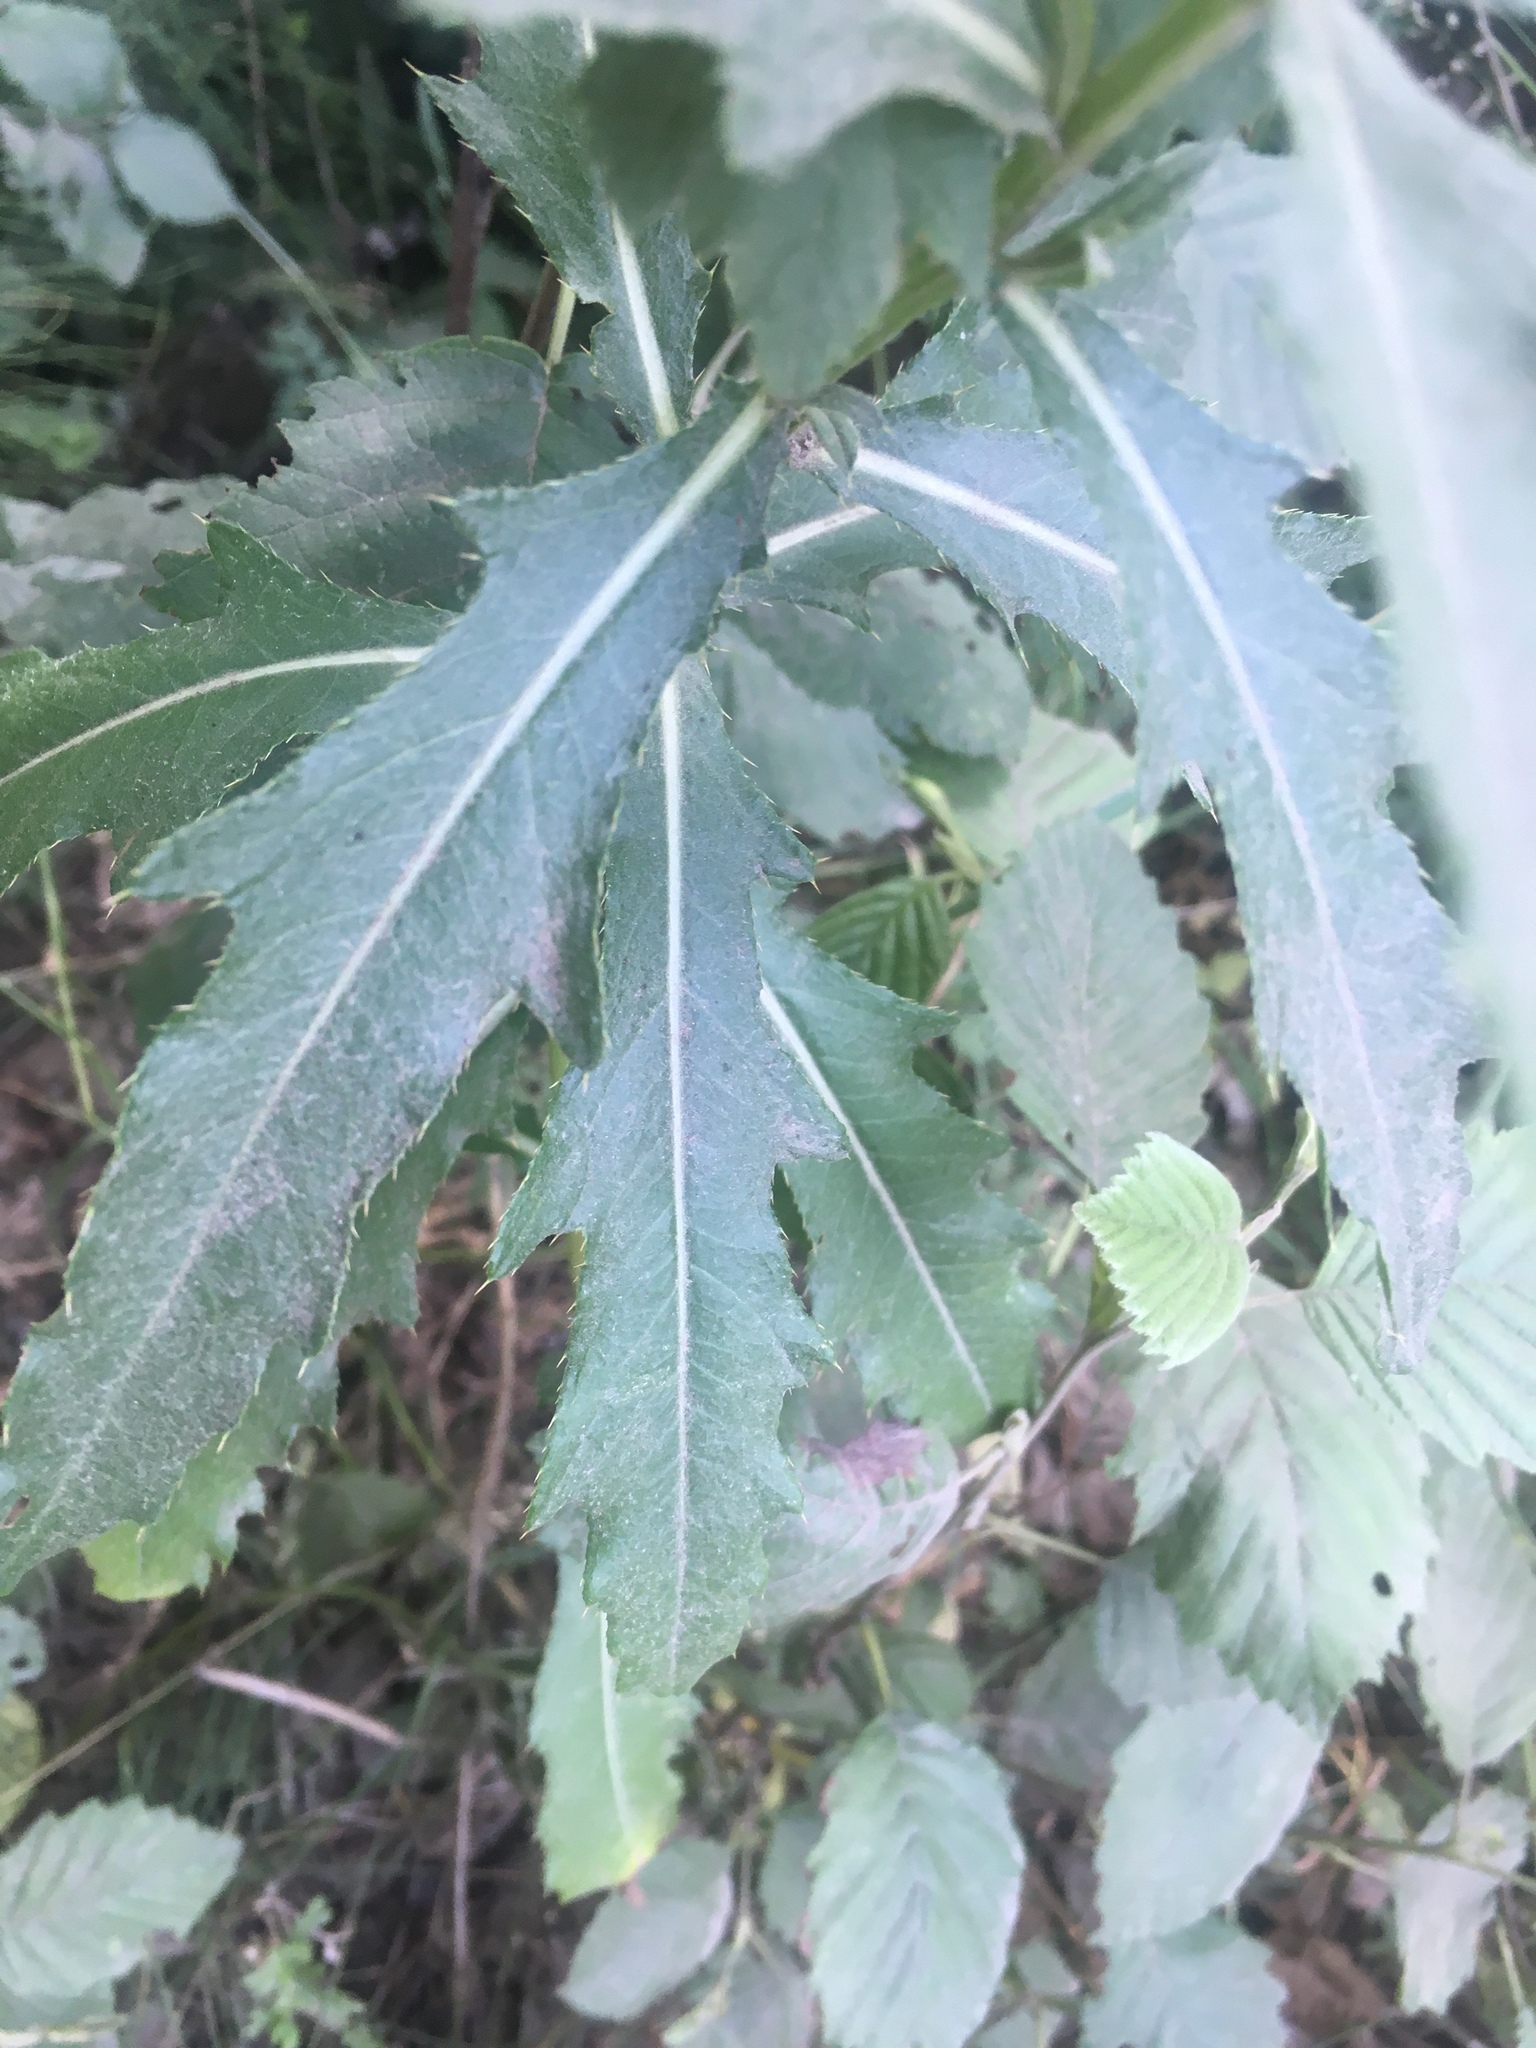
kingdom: Plantae
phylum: Tracheophyta
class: Magnoliopsida
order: Asterales
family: Asteraceae
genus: Cirsium
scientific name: Cirsium arvense
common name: Creeping thistle
